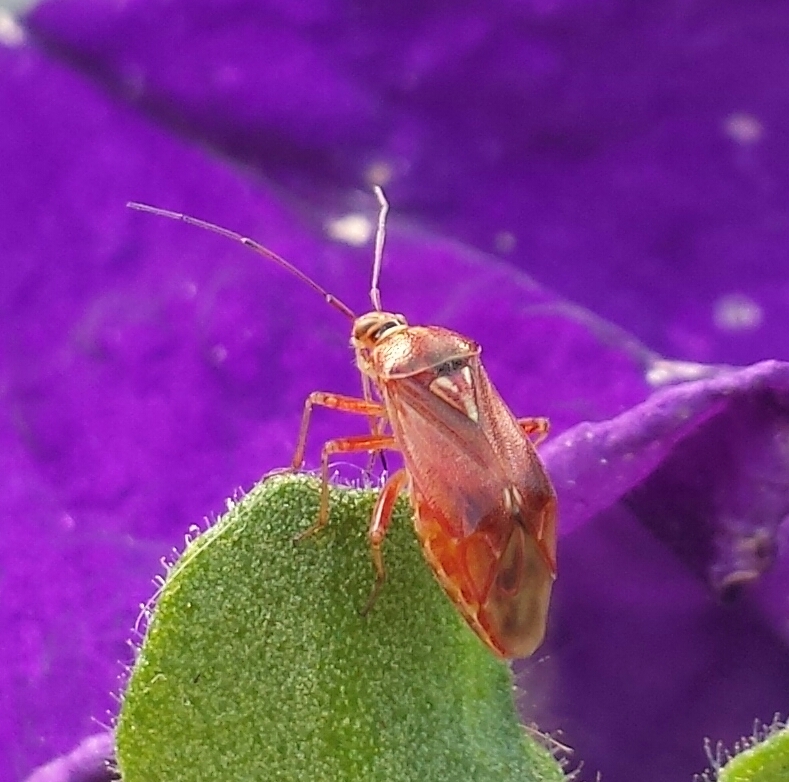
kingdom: Animalia
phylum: Arthropoda
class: Insecta
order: Hemiptera
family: Miridae
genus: Lygus
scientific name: Lygus rubroclarus
